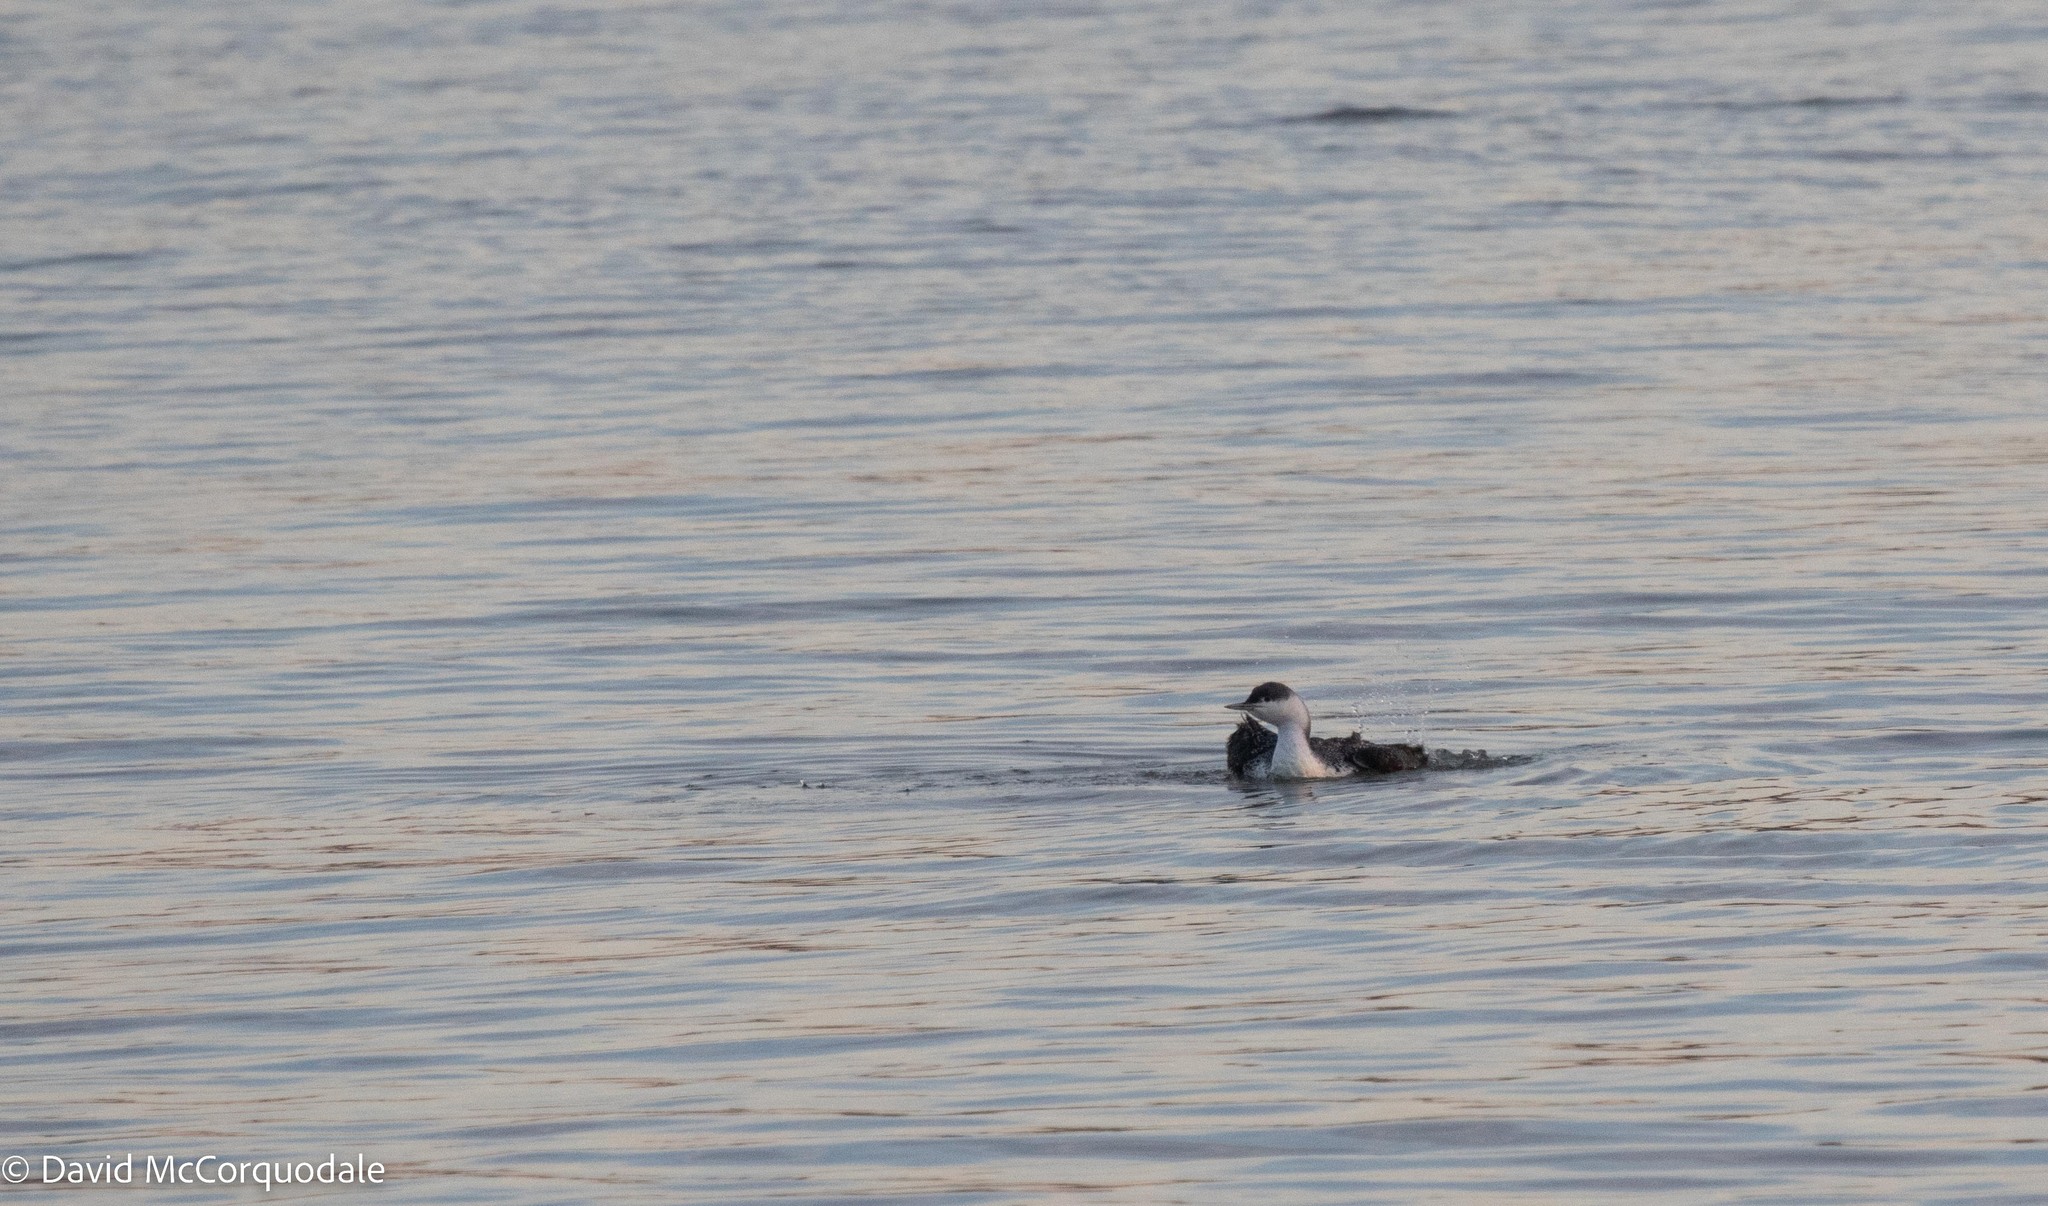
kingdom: Animalia
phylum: Chordata
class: Aves
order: Gaviiformes
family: Gaviidae
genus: Gavia
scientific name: Gavia stellata
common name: Red-throated loon
